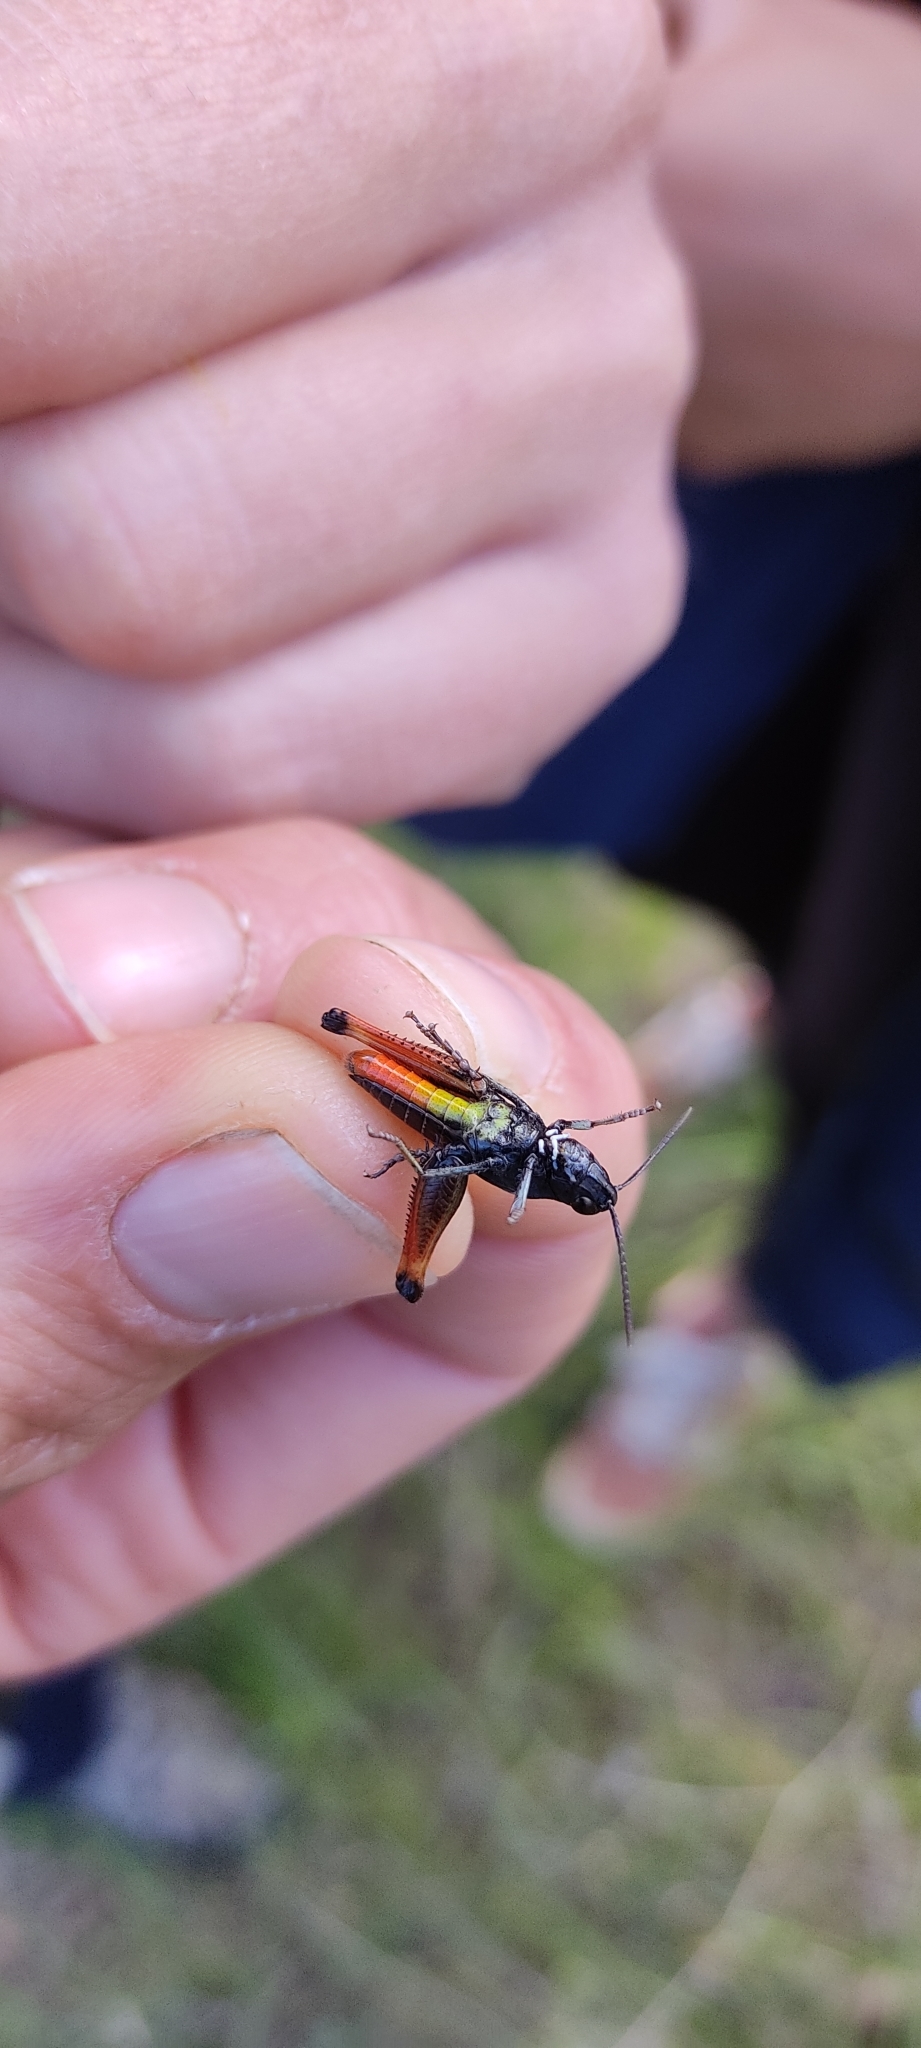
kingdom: Animalia
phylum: Arthropoda
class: Insecta
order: Orthoptera
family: Acrididae
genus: Omocestus
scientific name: Omocestus rufipes
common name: Woodland grasshopper
